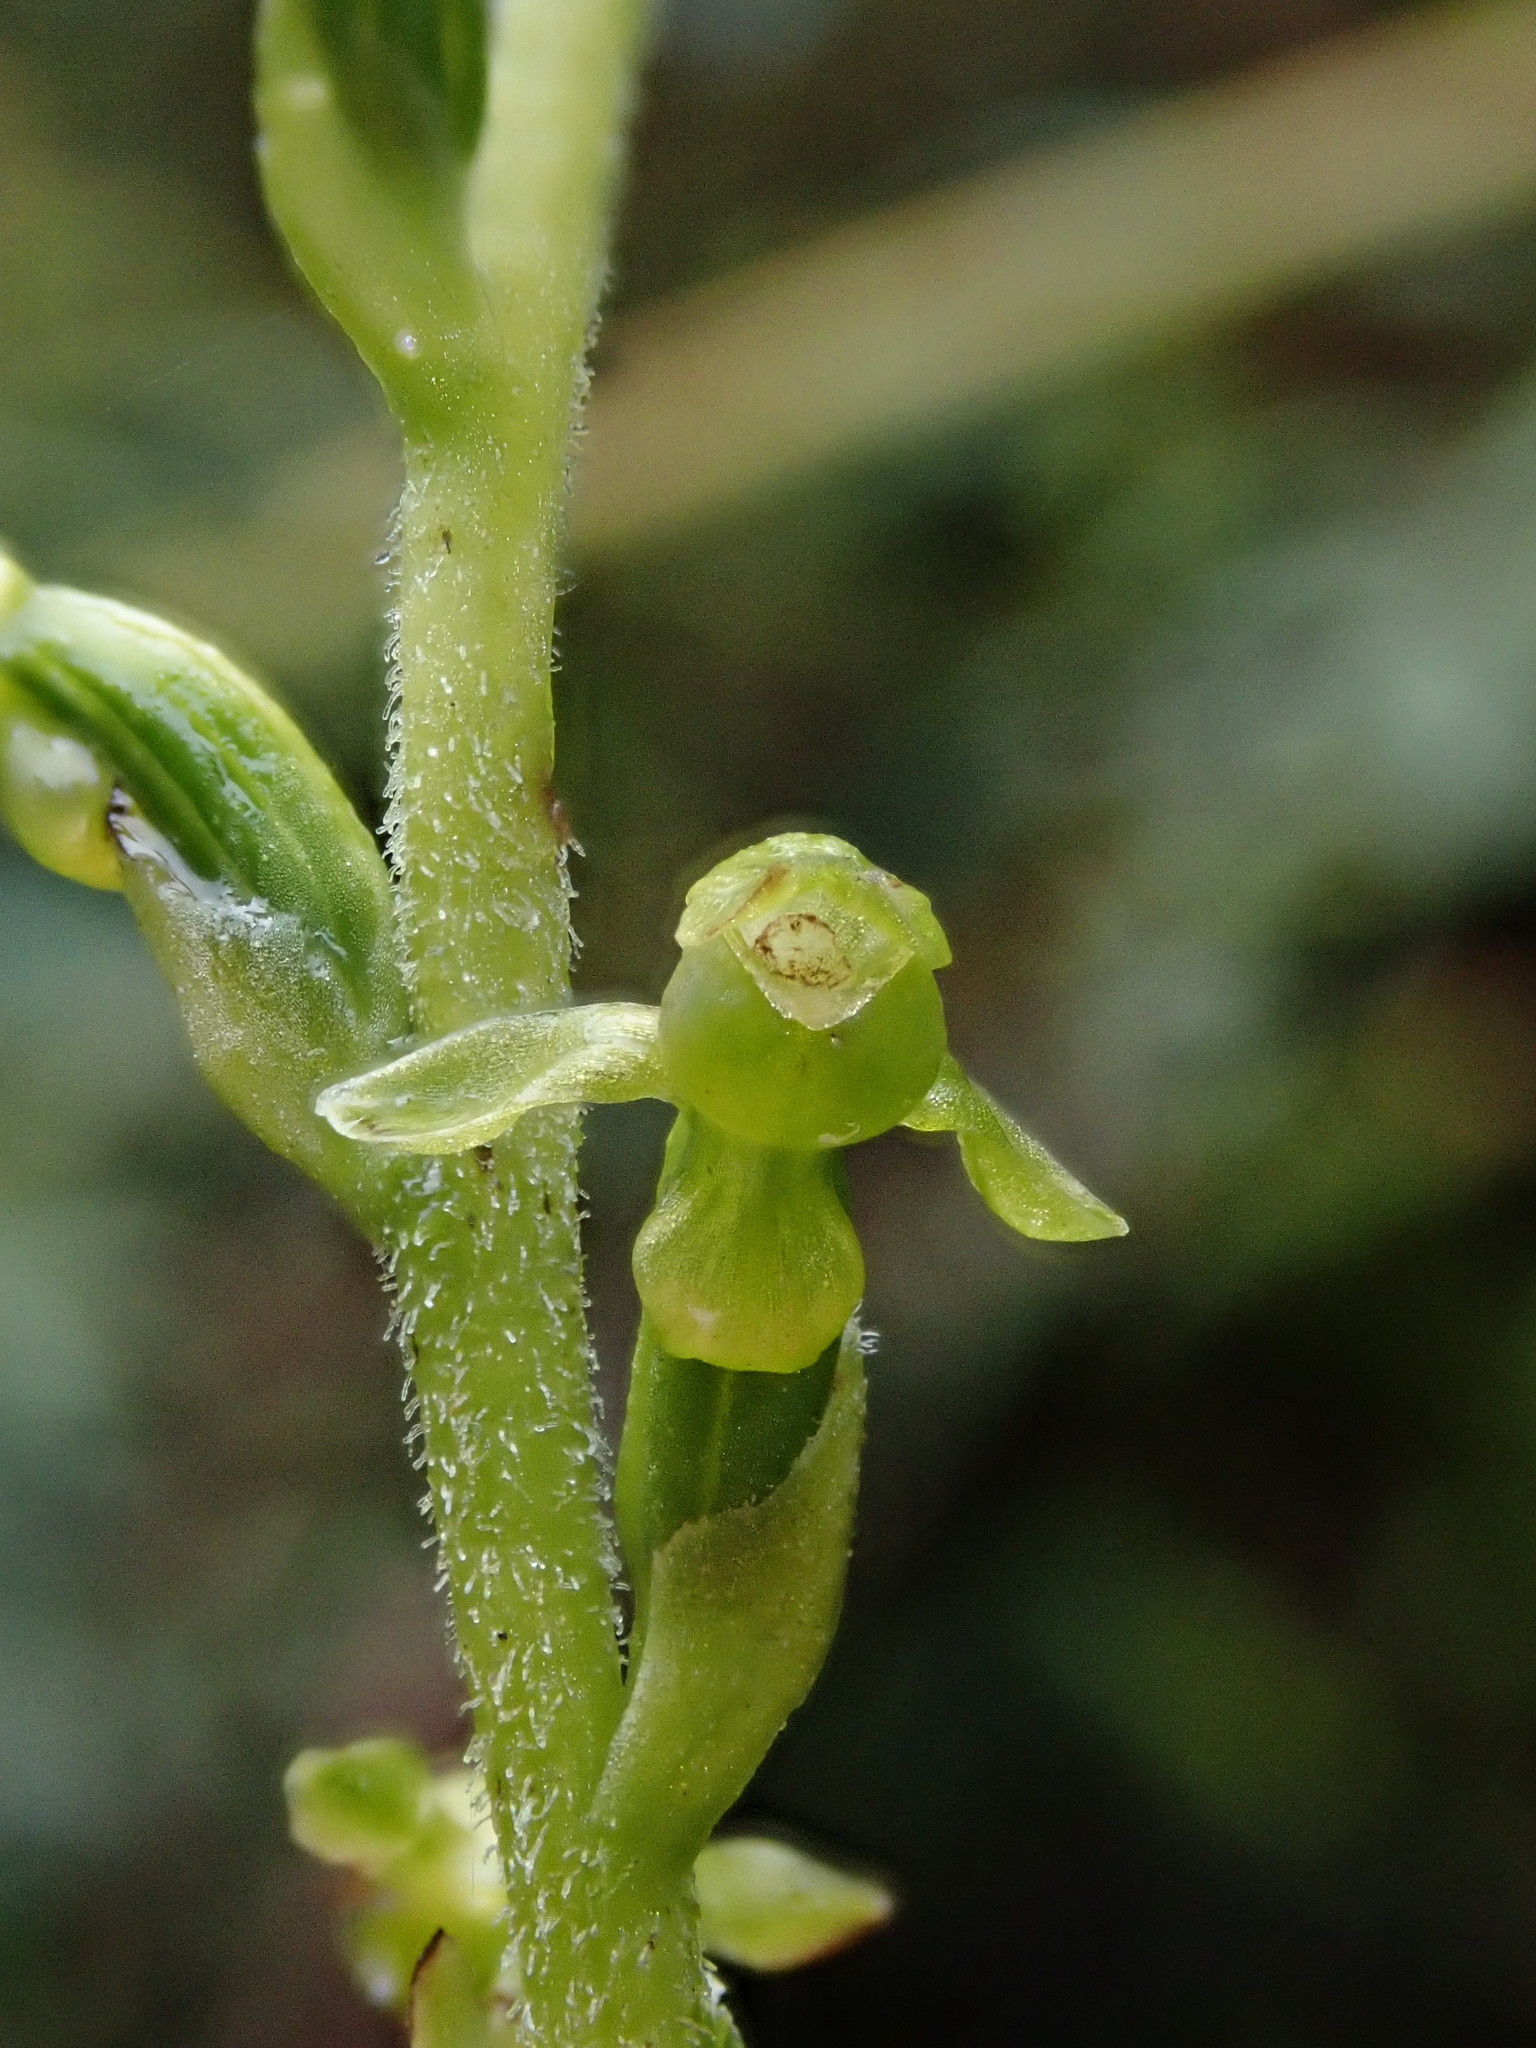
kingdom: Plantae
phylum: Tracheophyta
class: Liliopsida
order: Asparagales
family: Orchidaceae
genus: Kreodanthus
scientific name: Kreodanthus crispifolius
